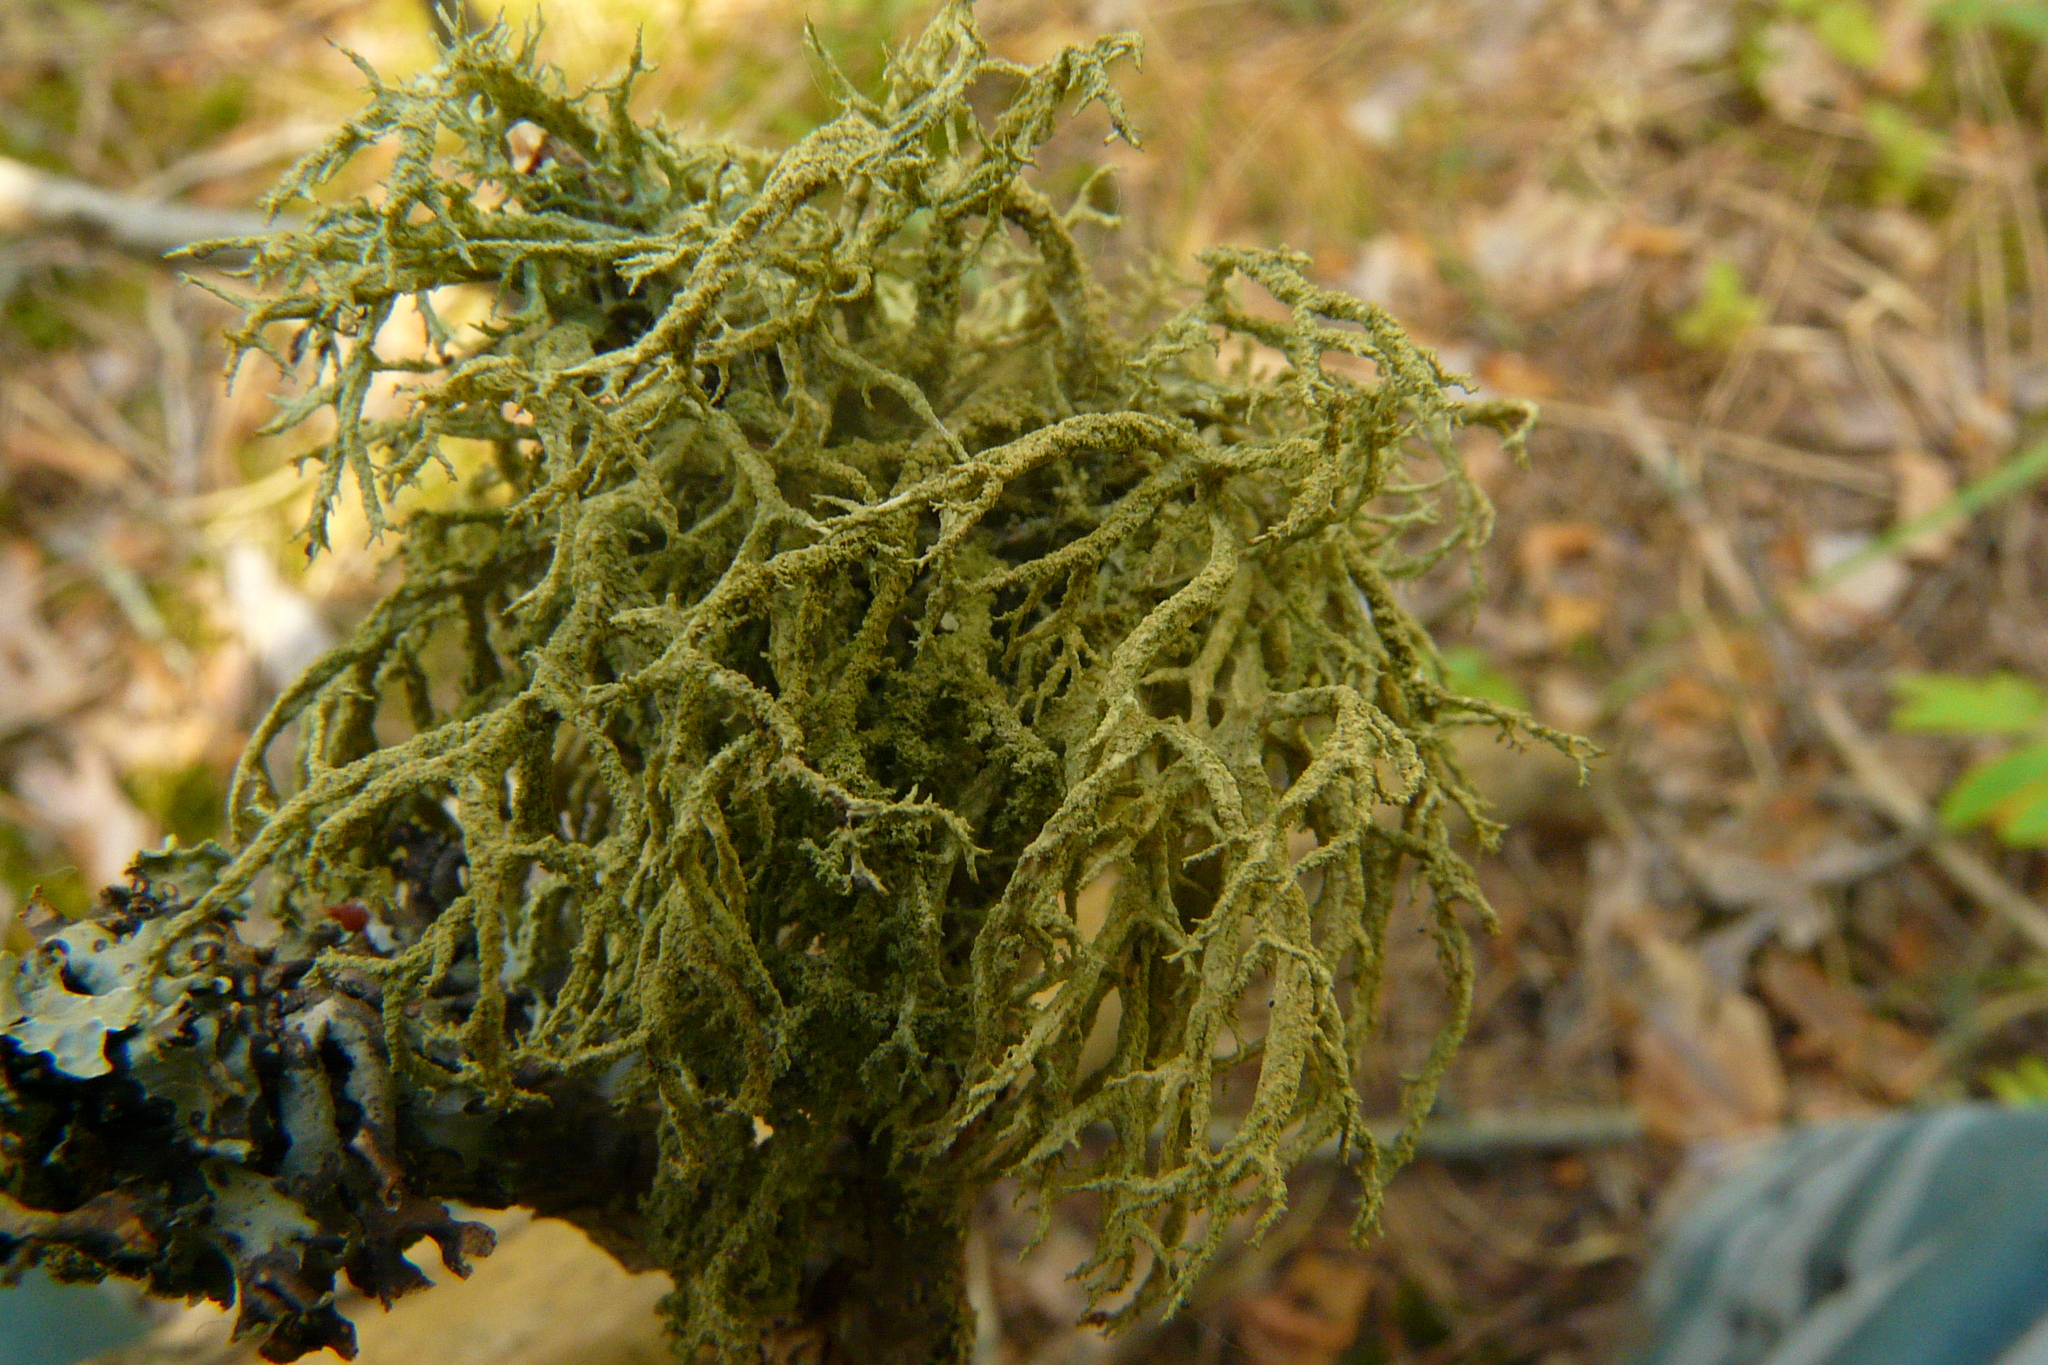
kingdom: Fungi
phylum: Ascomycota
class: Lecanoromycetes
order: Lecanorales
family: Parmeliaceae
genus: Evernia
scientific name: Evernia mesomorpha
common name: Boreal oak moss lichen
